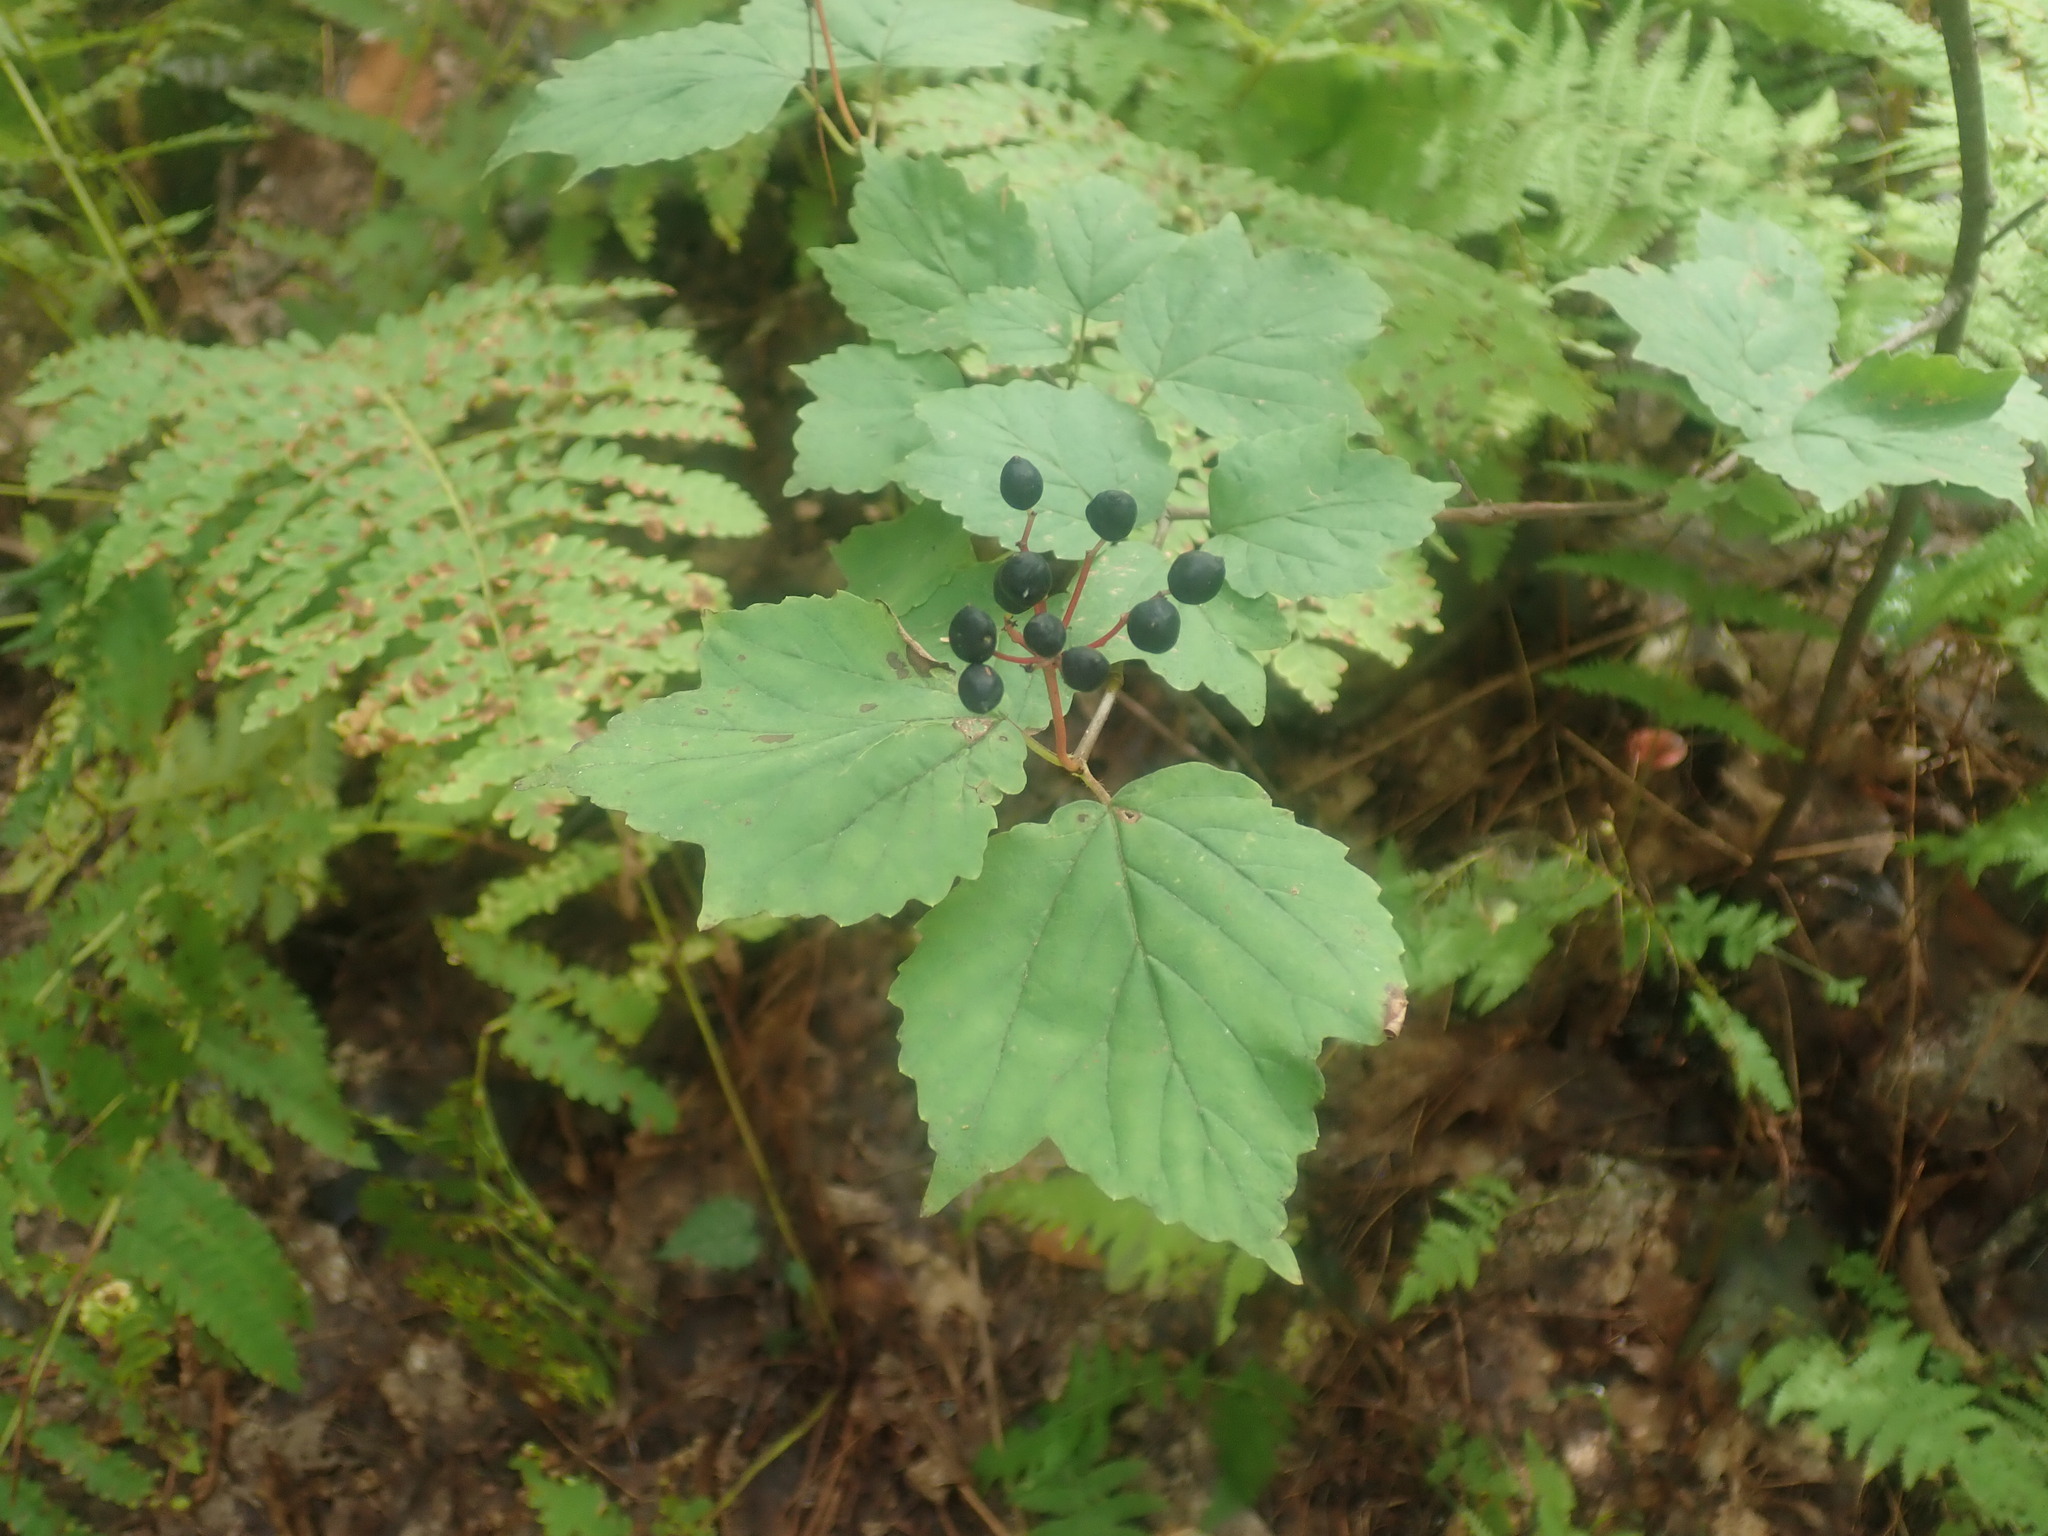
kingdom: Plantae
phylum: Tracheophyta
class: Magnoliopsida
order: Dipsacales
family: Viburnaceae
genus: Viburnum
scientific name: Viburnum acerifolium
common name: Dockmackie
